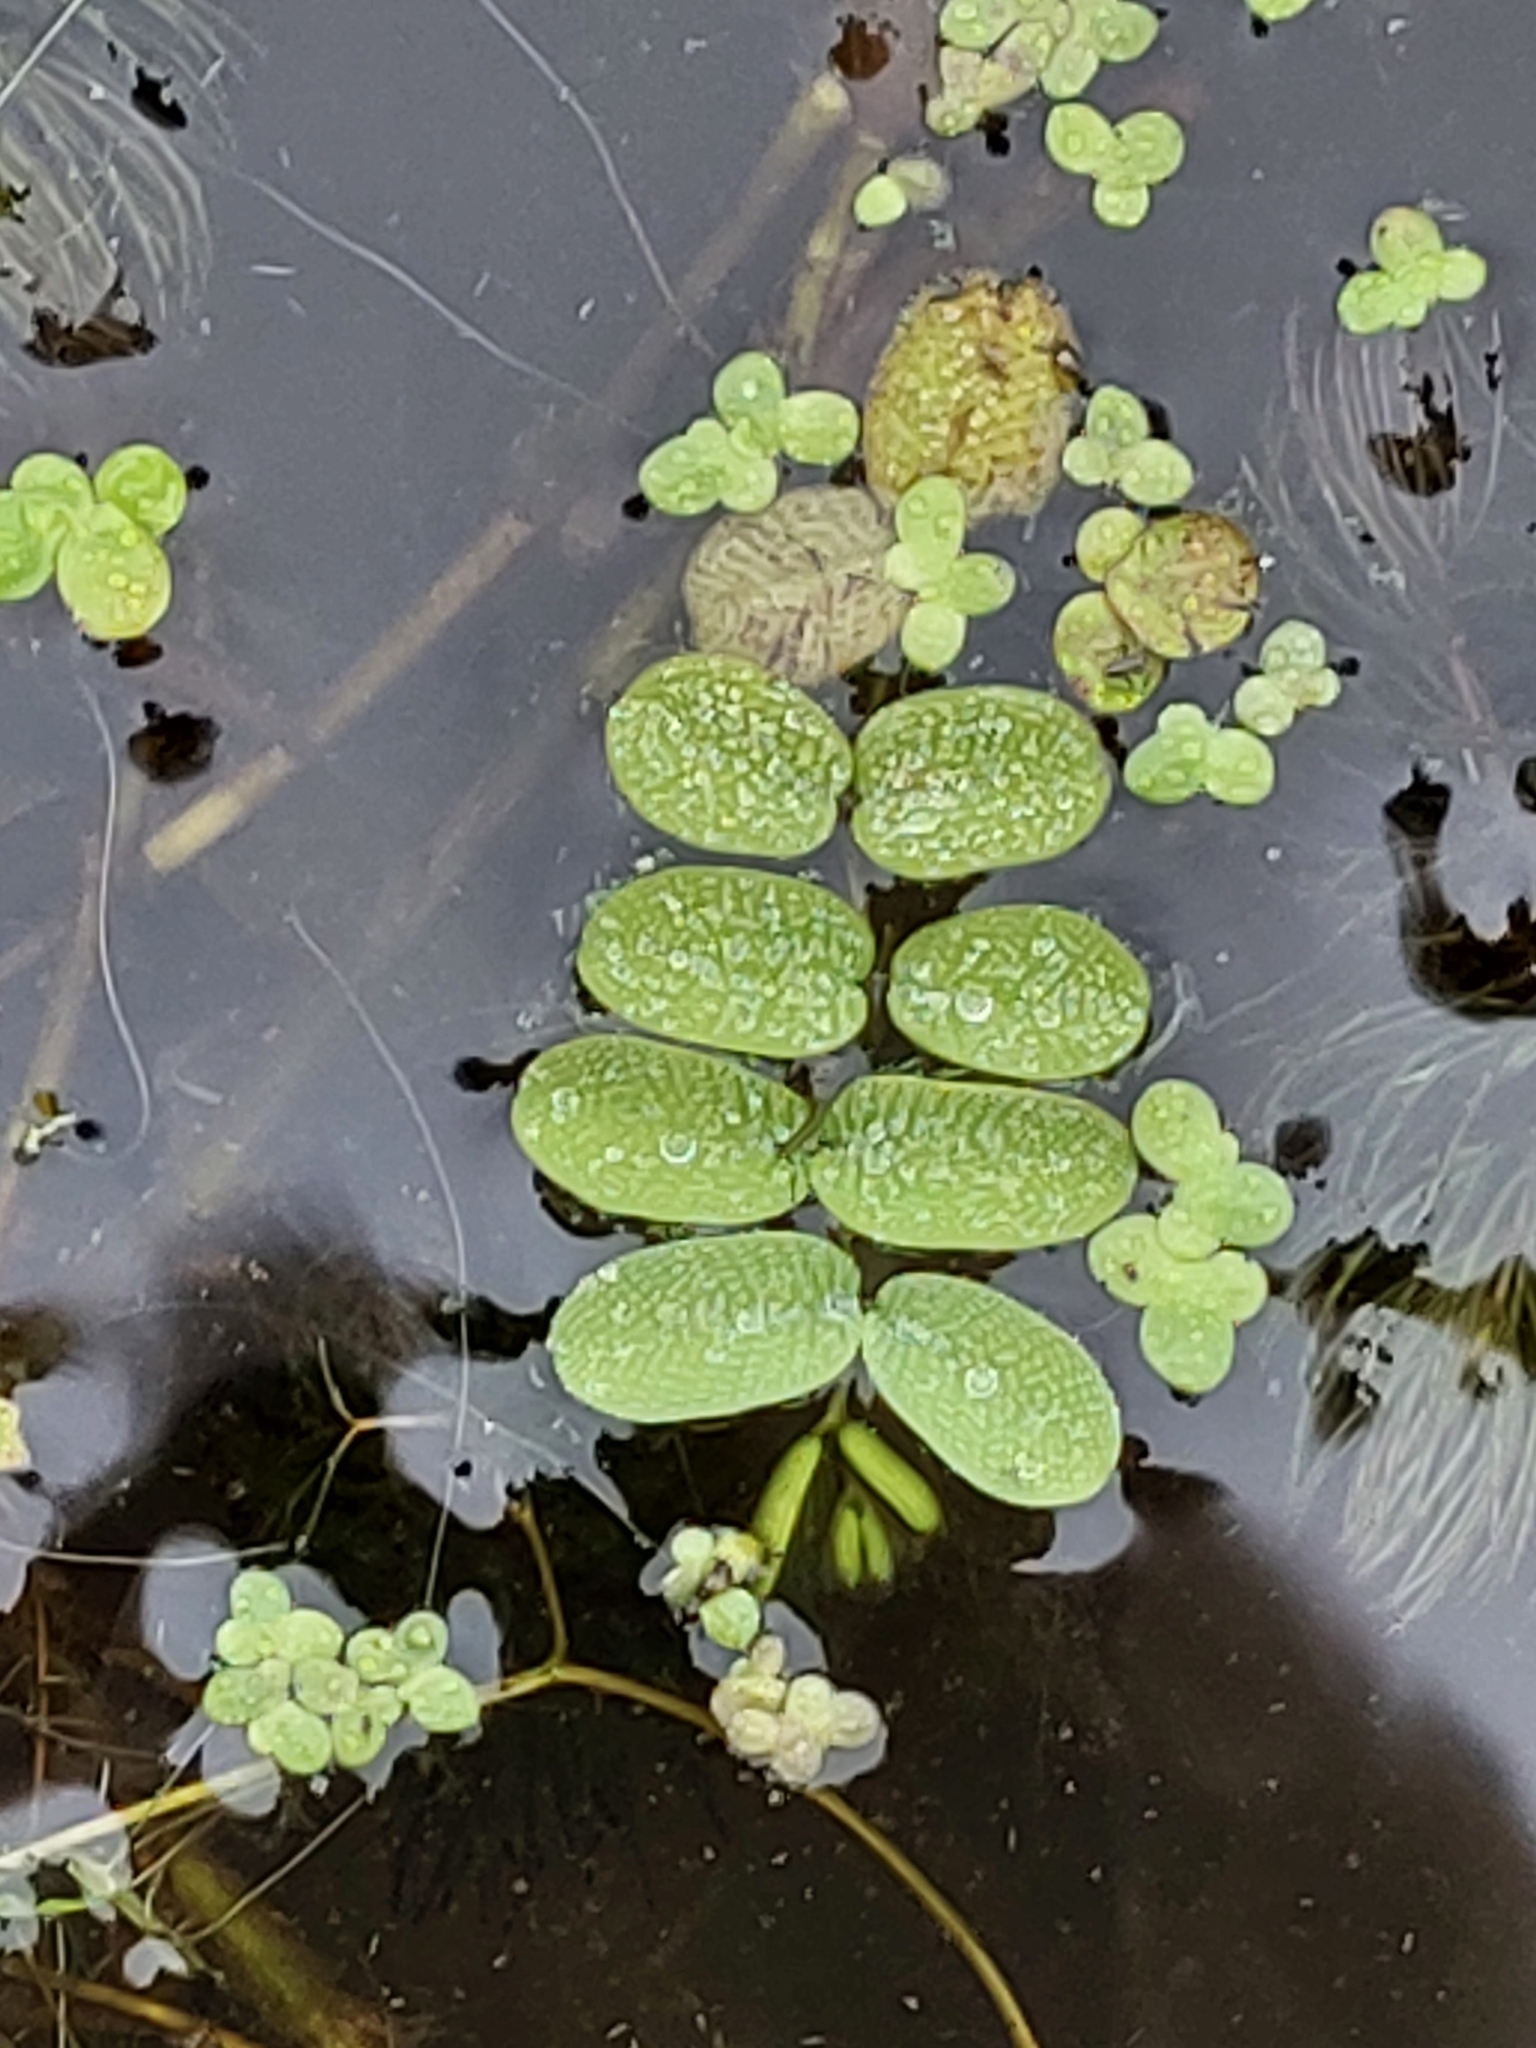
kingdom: Plantae
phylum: Tracheophyta
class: Polypodiopsida
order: Salviniales
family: Salviniaceae
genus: Salvinia
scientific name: Salvinia natans
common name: Floating fern
